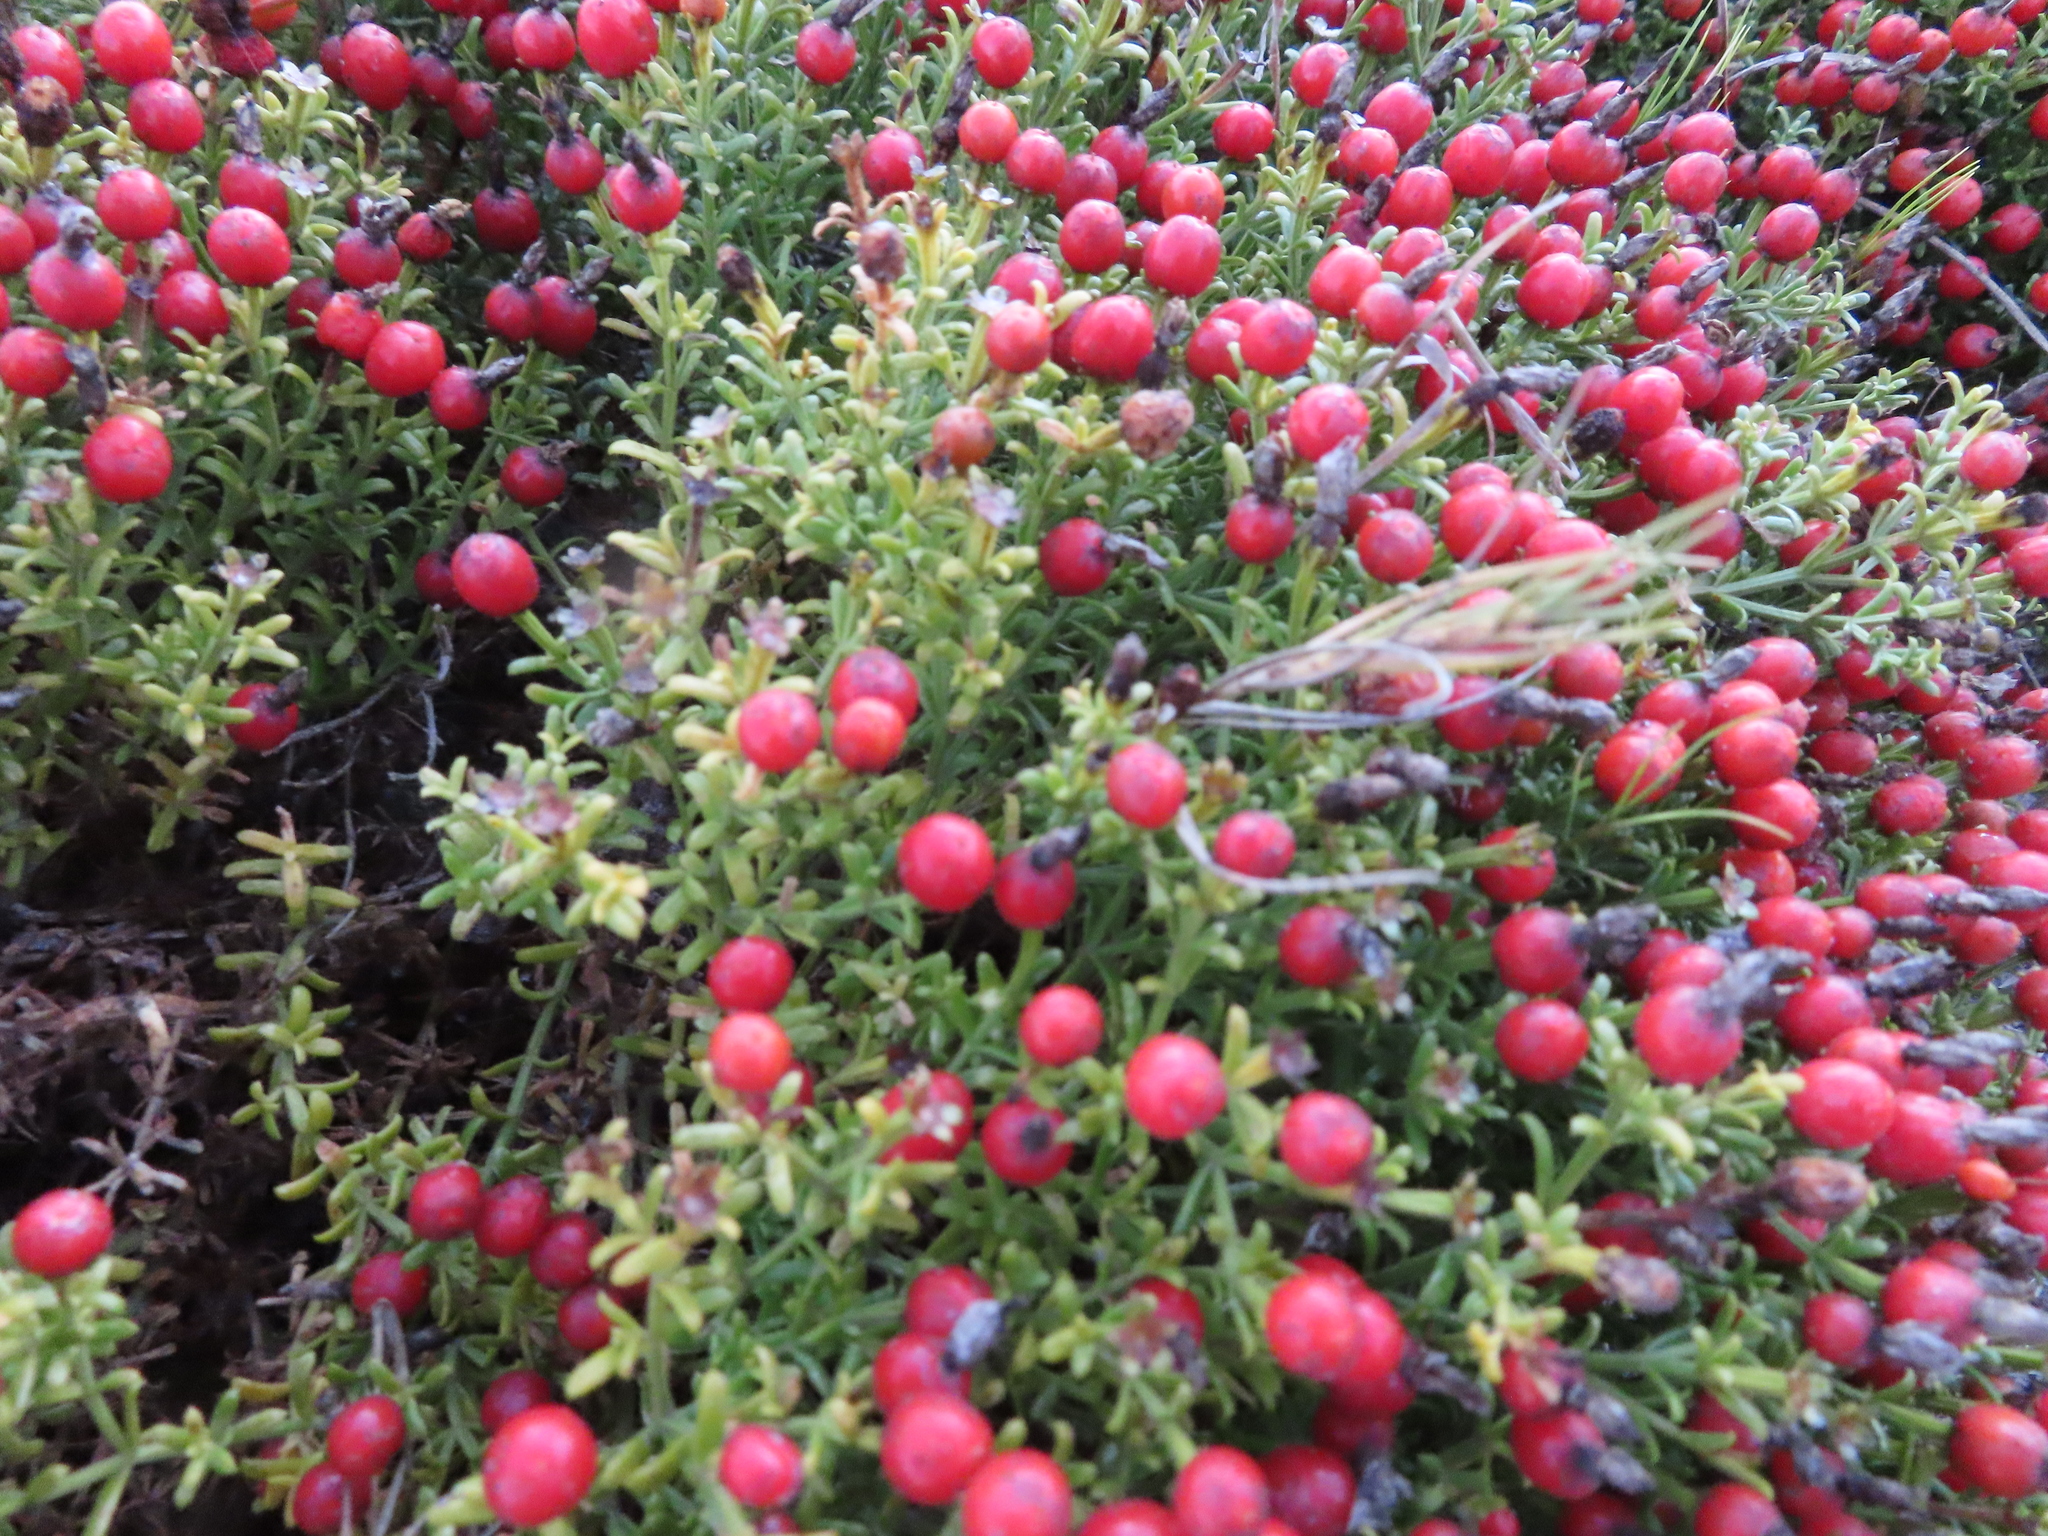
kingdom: Plantae
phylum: Tracheophyta
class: Magnoliopsida
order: Gentianales
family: Gentianaceae
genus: Chironia
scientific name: Chironia baccifera
